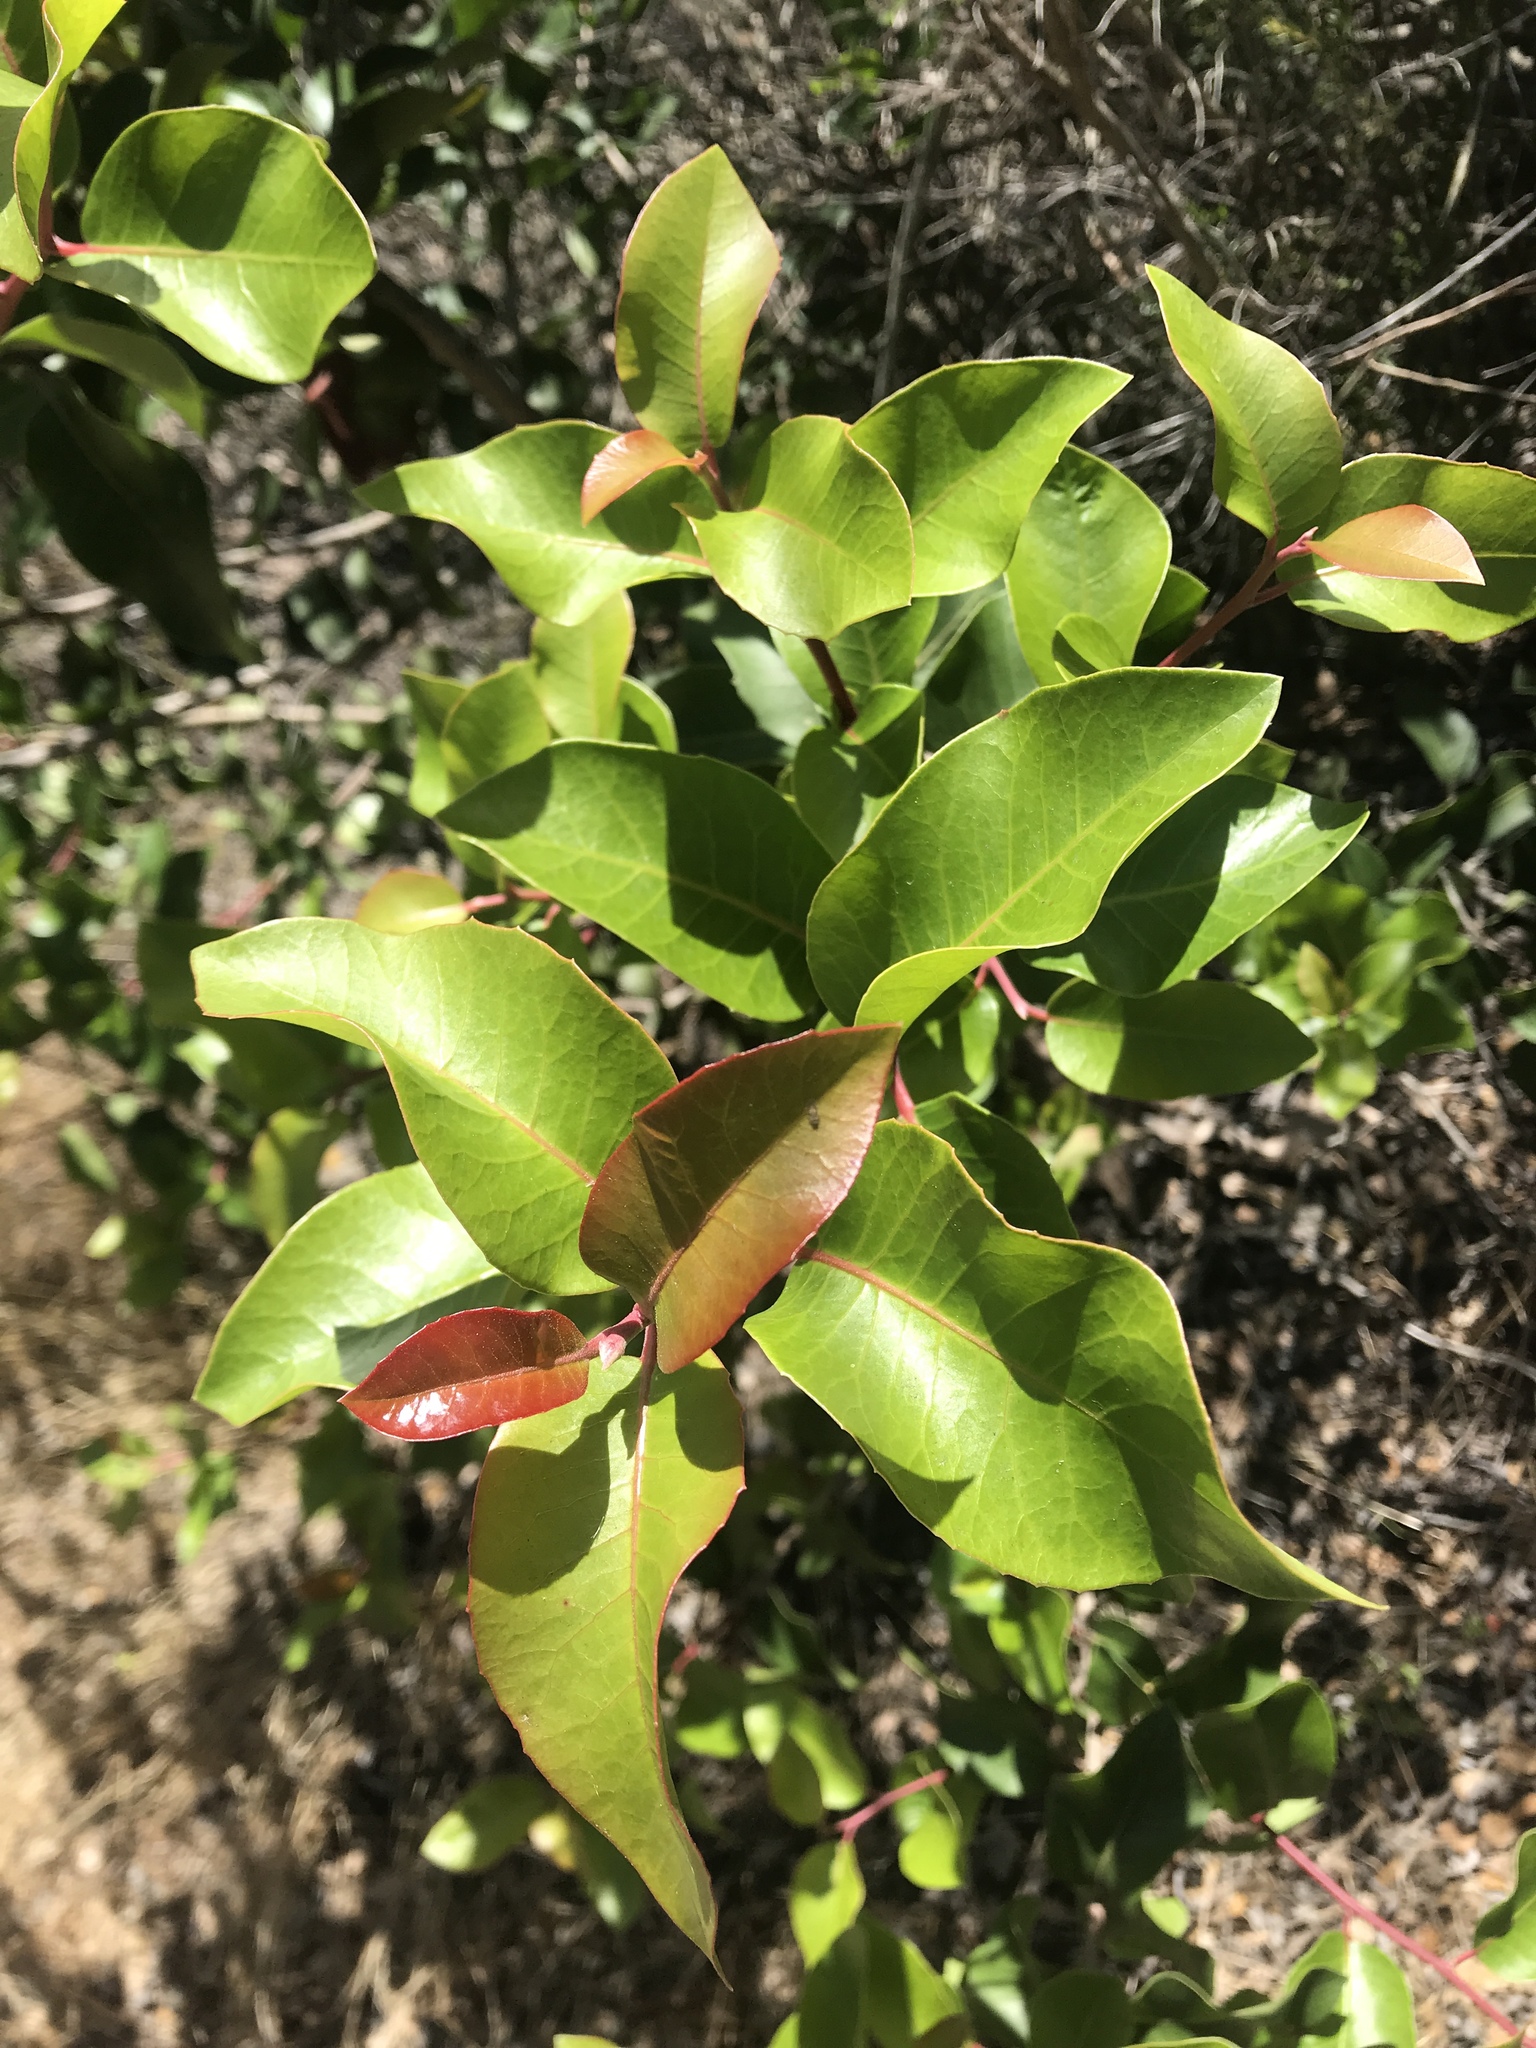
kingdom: Plantae
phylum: Tracheophyta
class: Magnoliopsida
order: Sapindales
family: Anacardiaceae
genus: Rhus
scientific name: Rhus ovata
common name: Sugar sumac
